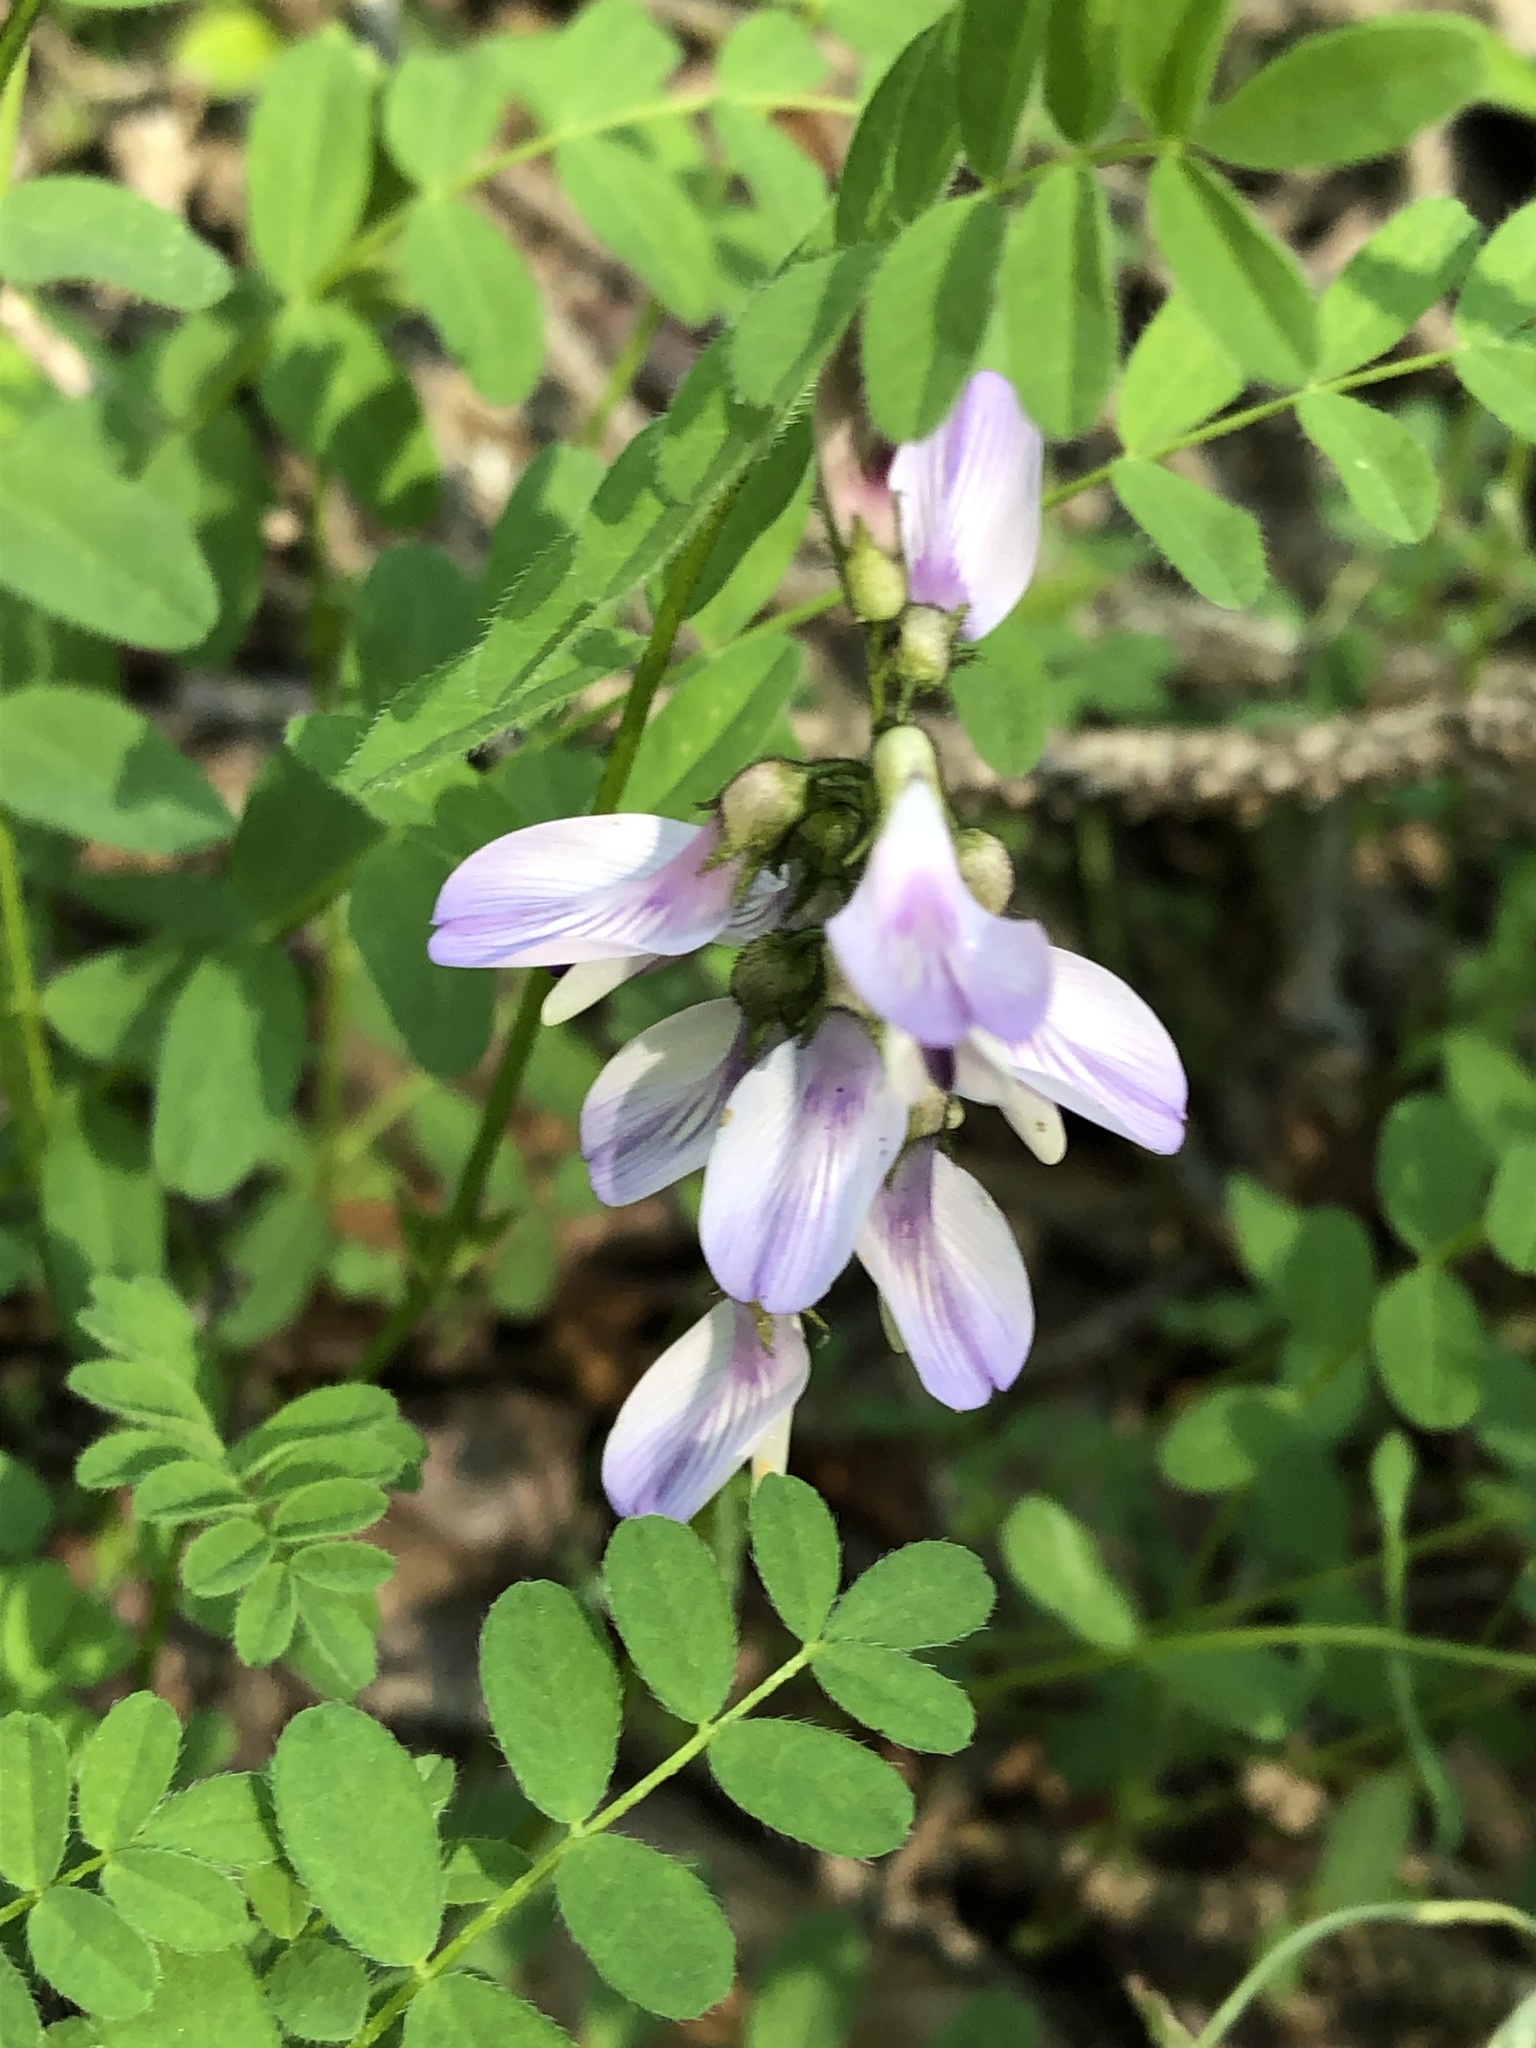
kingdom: Plantae
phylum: Tracheophyta
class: Magnoliopsida
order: Fabales
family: Fabaceae
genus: Astragalus
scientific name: Astragalus alpinus
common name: Alpine milk-vetch
